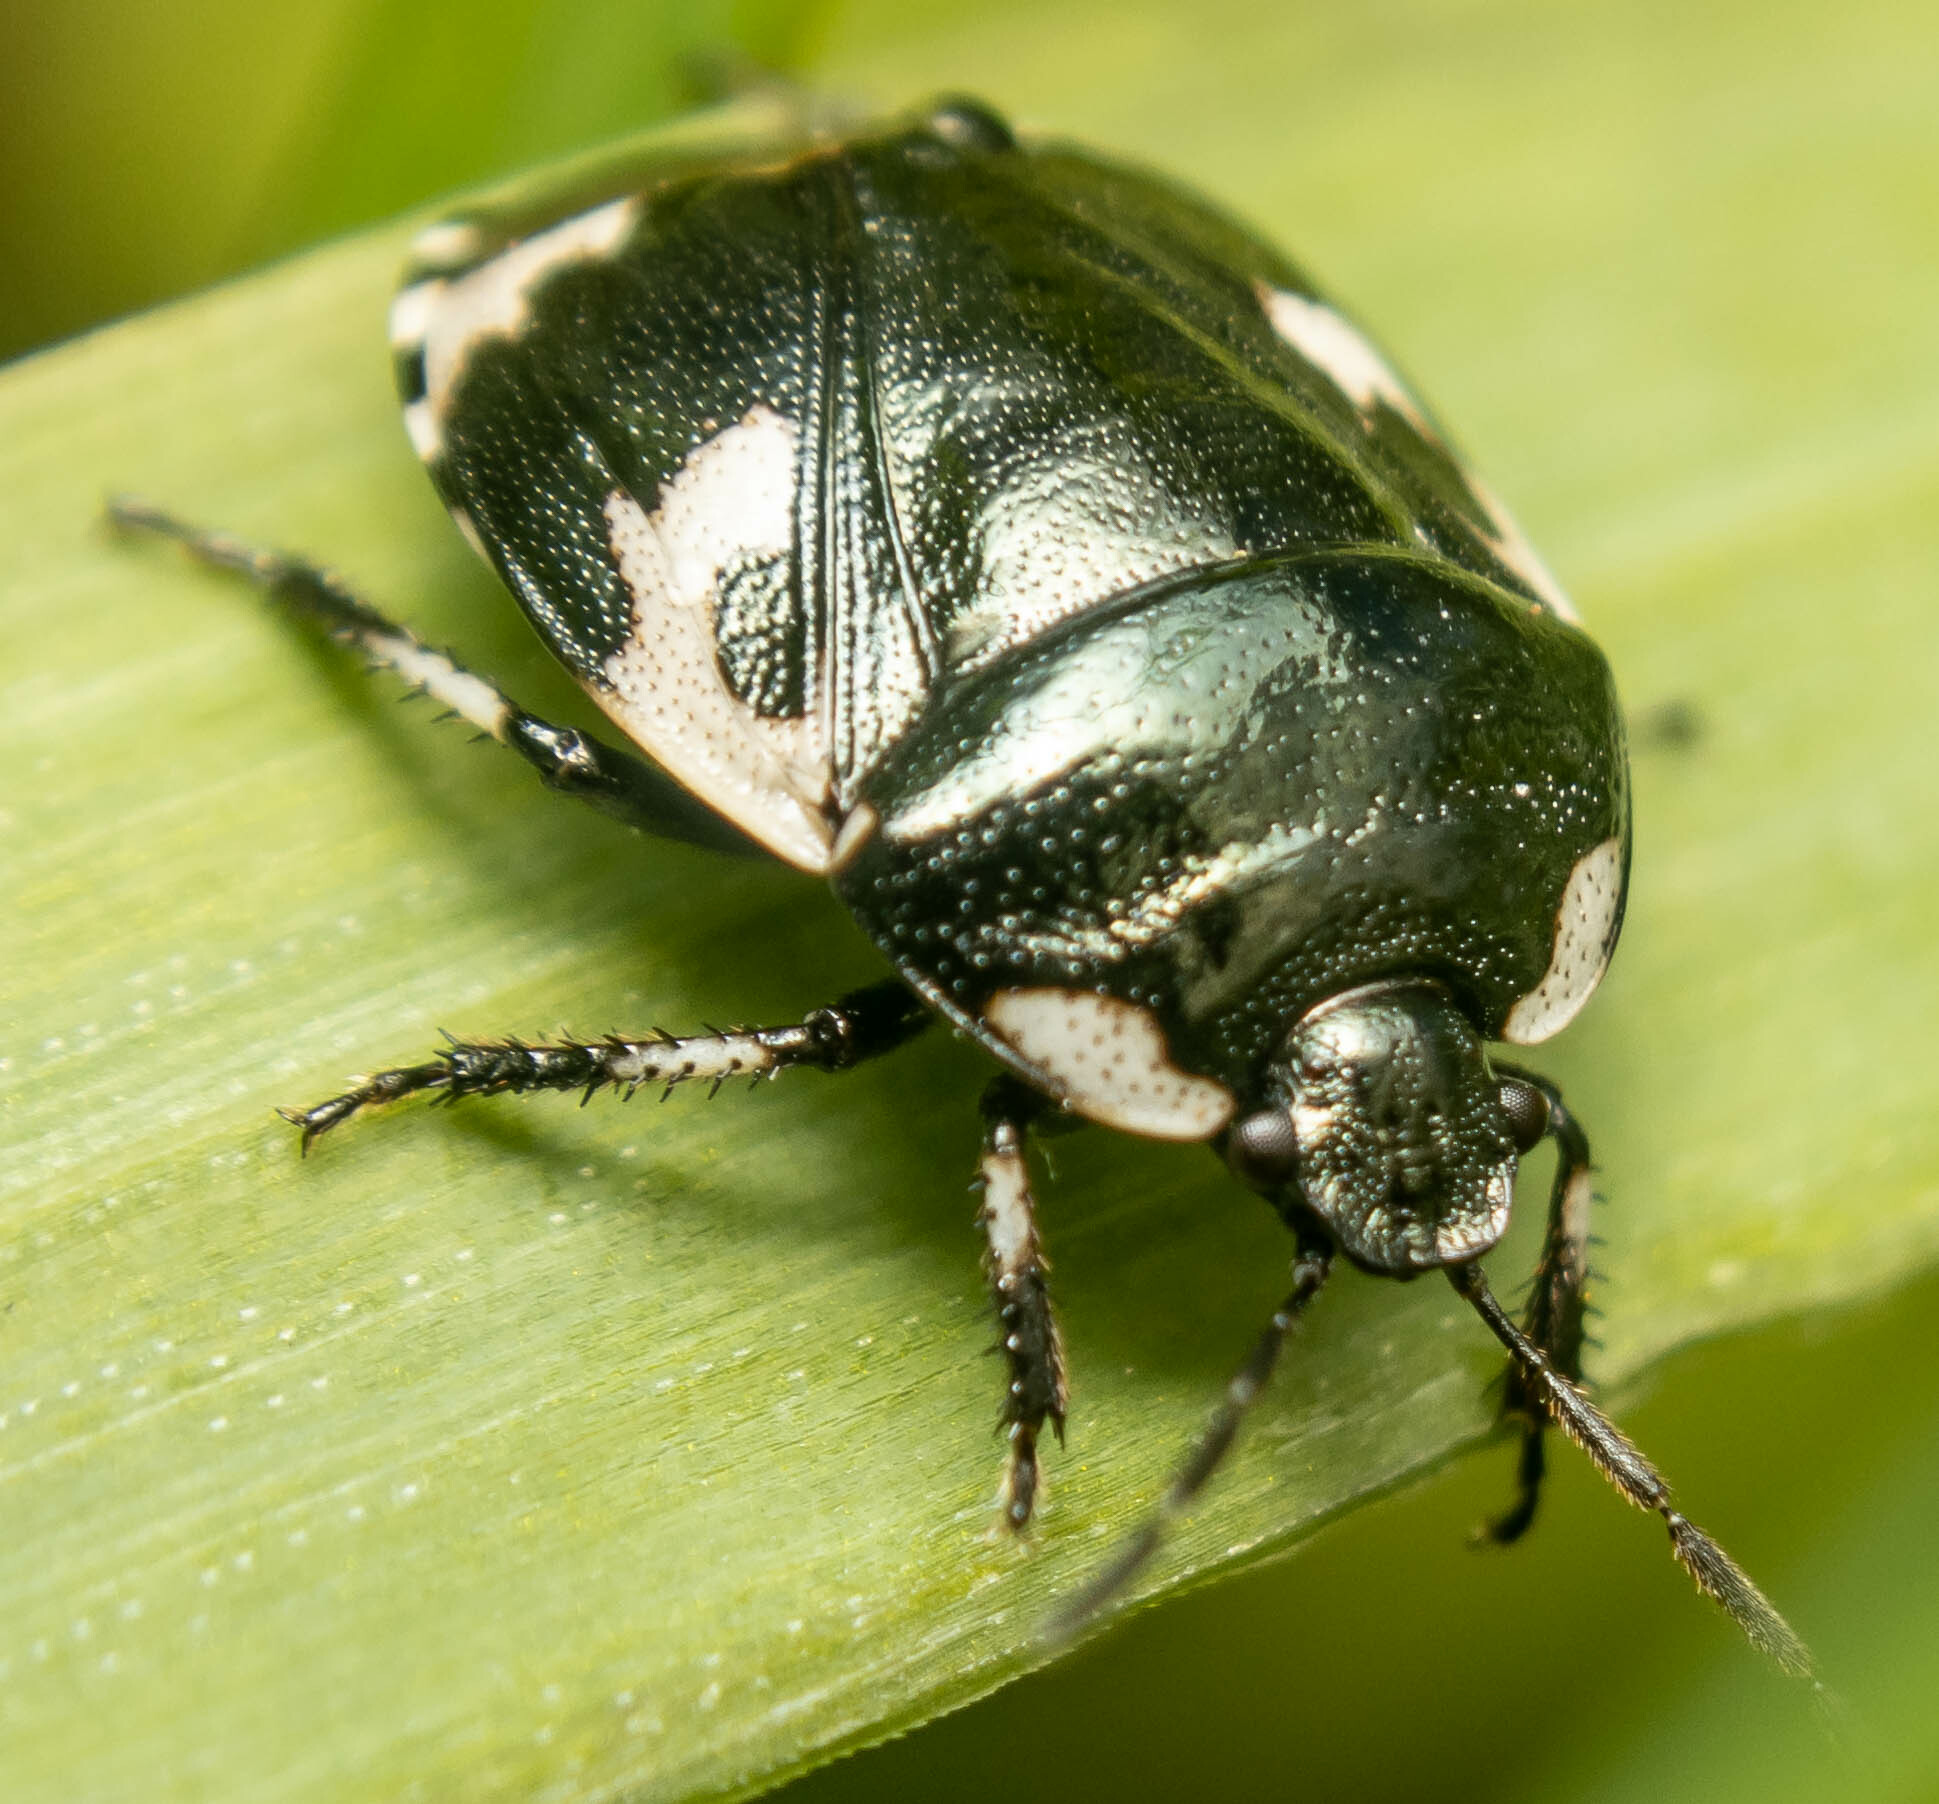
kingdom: Animalia
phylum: Arthropoda
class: Insecta
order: Hemiptera
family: Cydnidae
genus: Tritomegas
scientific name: Tritomegas bicolor
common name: Pied shieldbug
